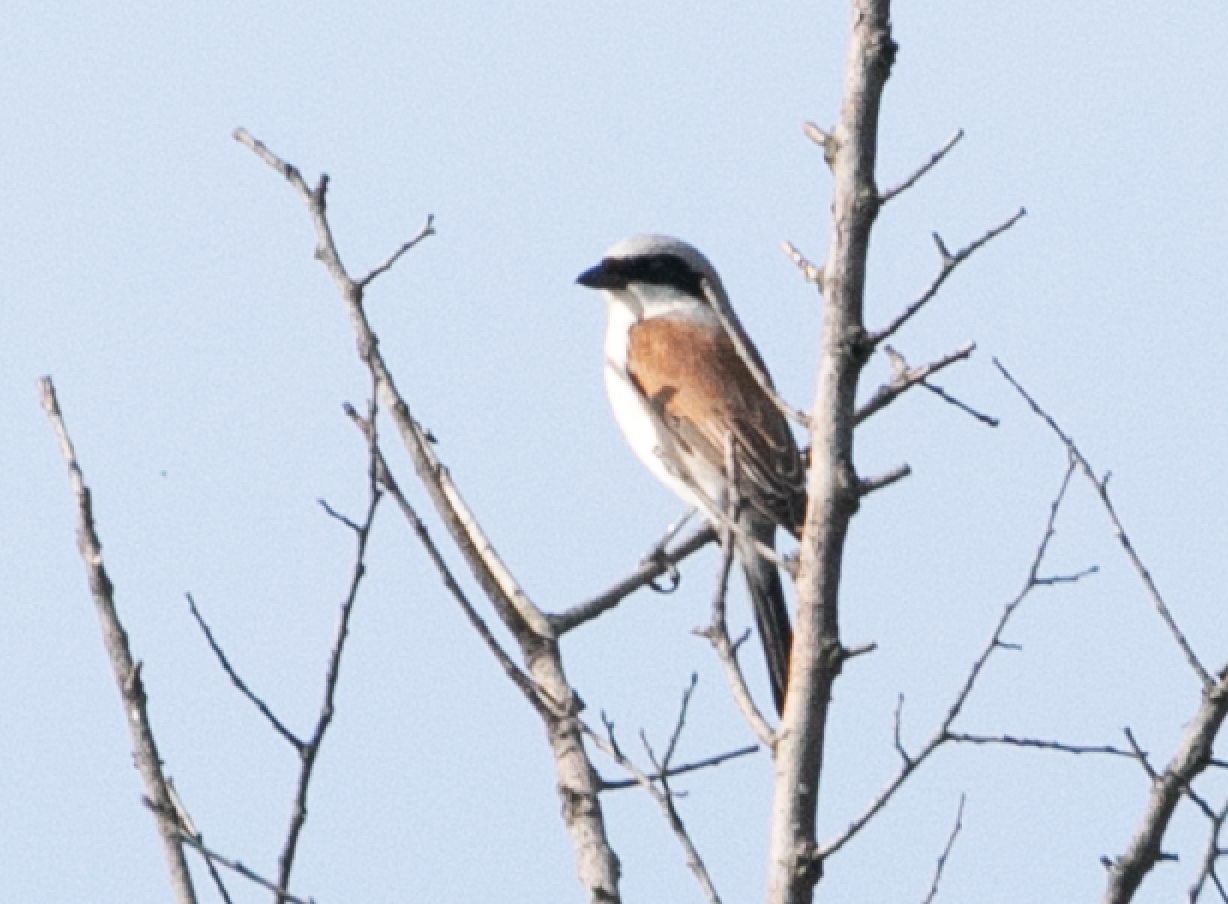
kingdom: Animalia
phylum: Chordata
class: Aves
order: Passeriformes
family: Laniidae
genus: Lanius
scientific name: Lanius collurio
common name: Red-backed shrike
